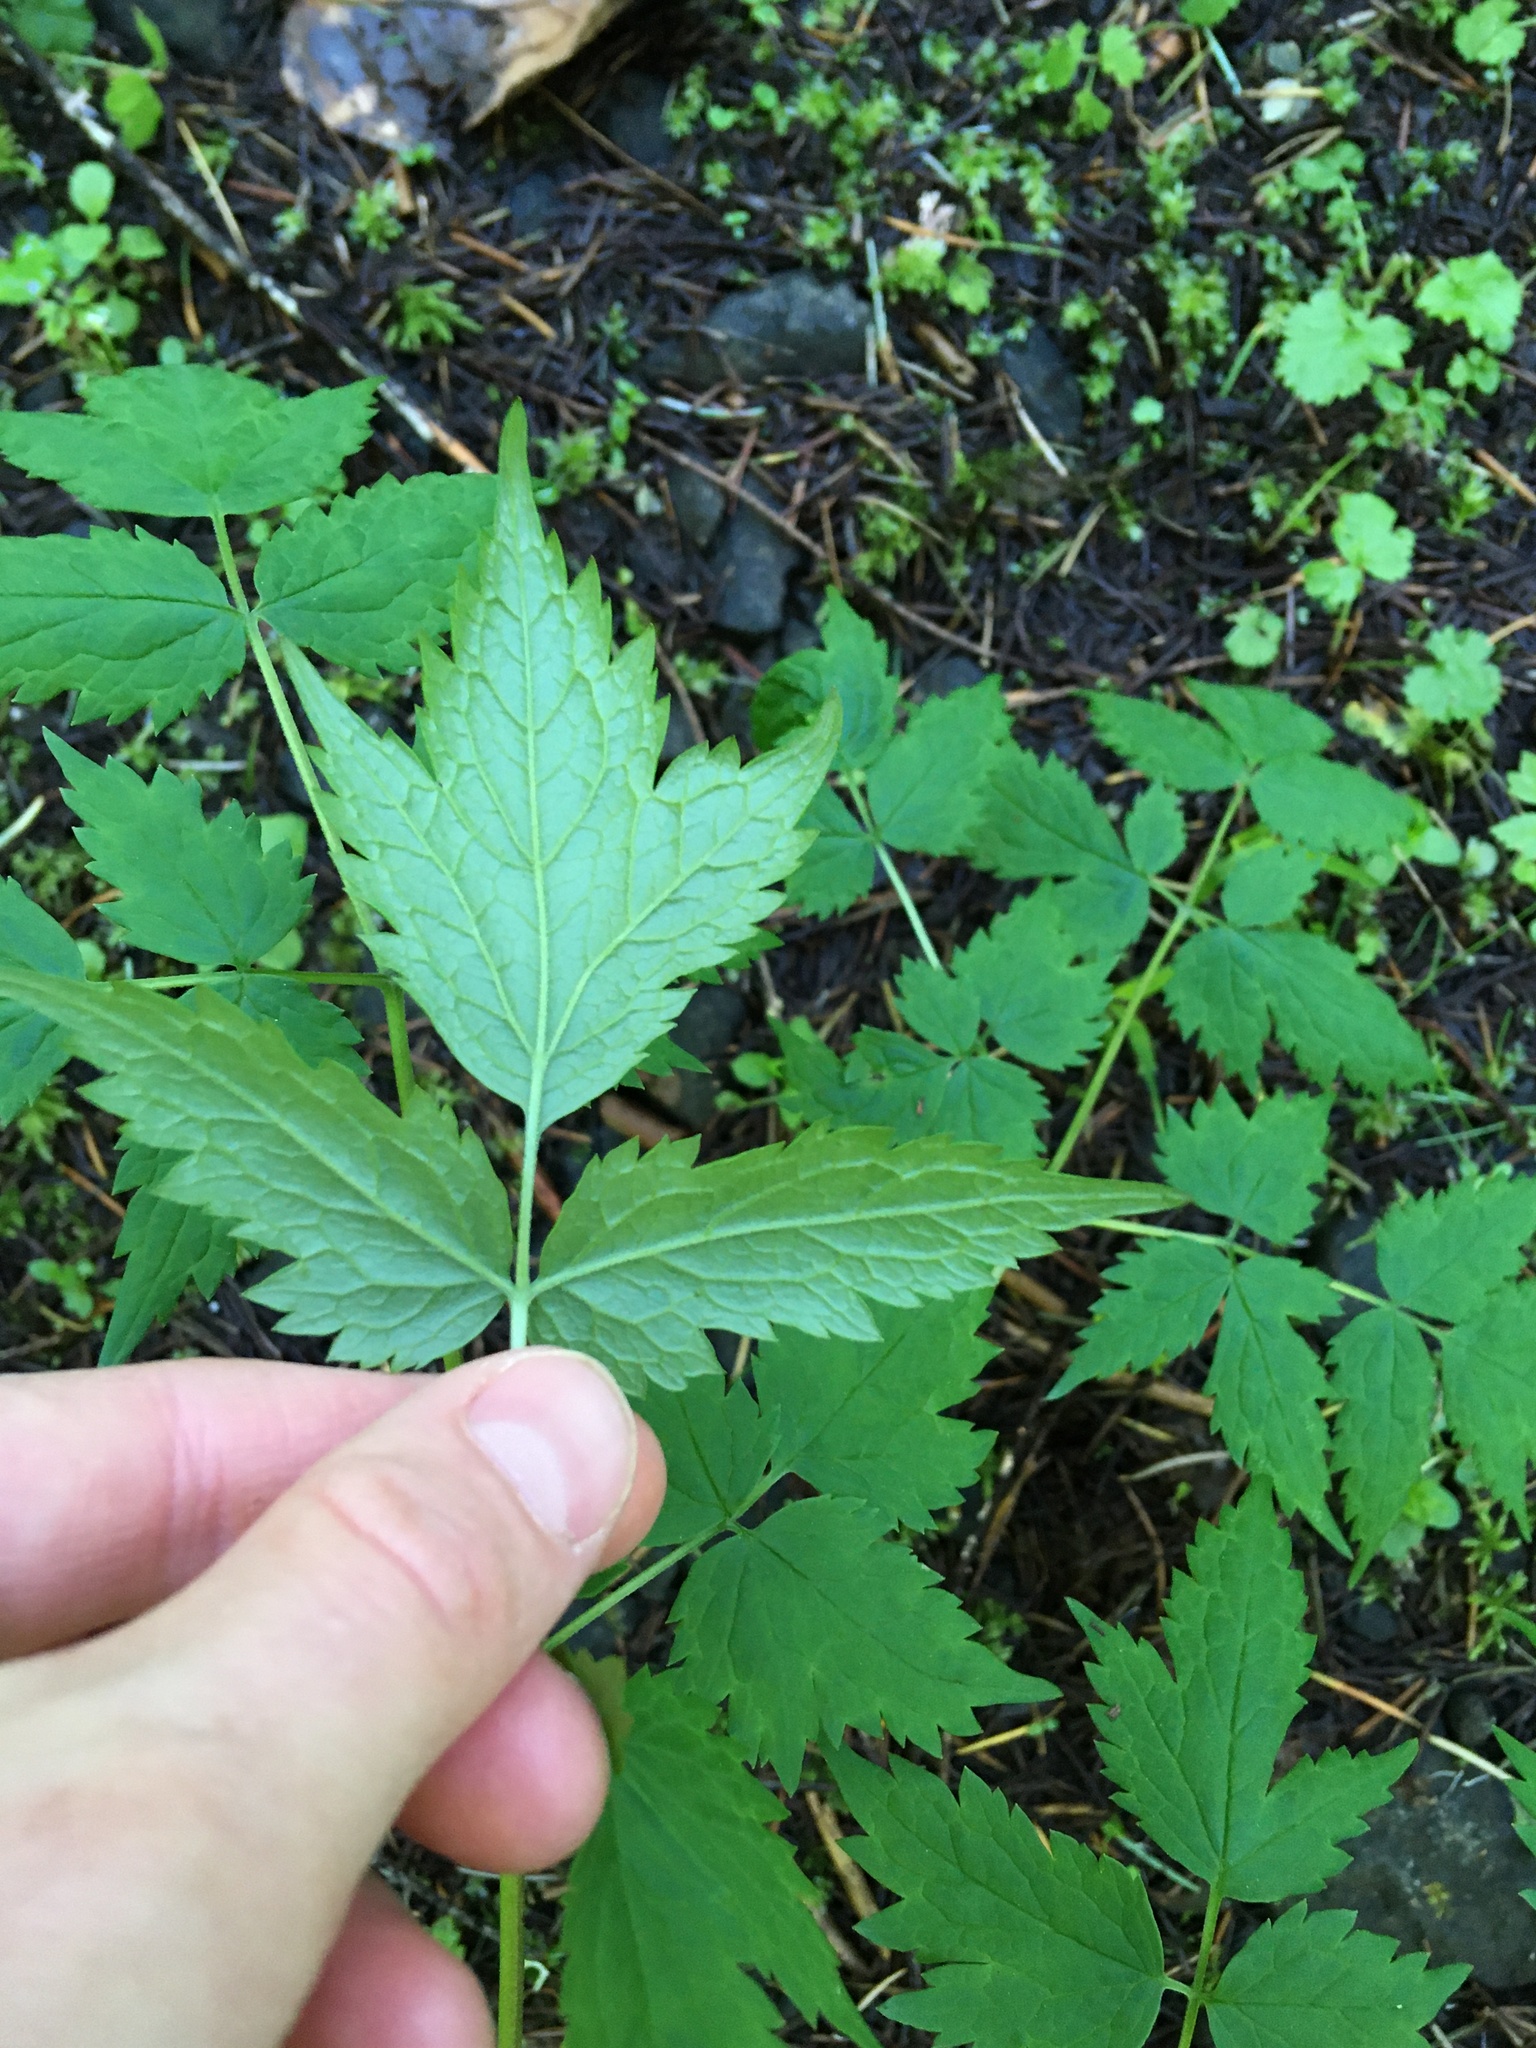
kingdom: Plantae
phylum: Tracheophyta
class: Magnoliopsida
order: Ranunculales
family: Ranunculaceae
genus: Actaea
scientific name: Actaea rubra
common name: Red baneberry
